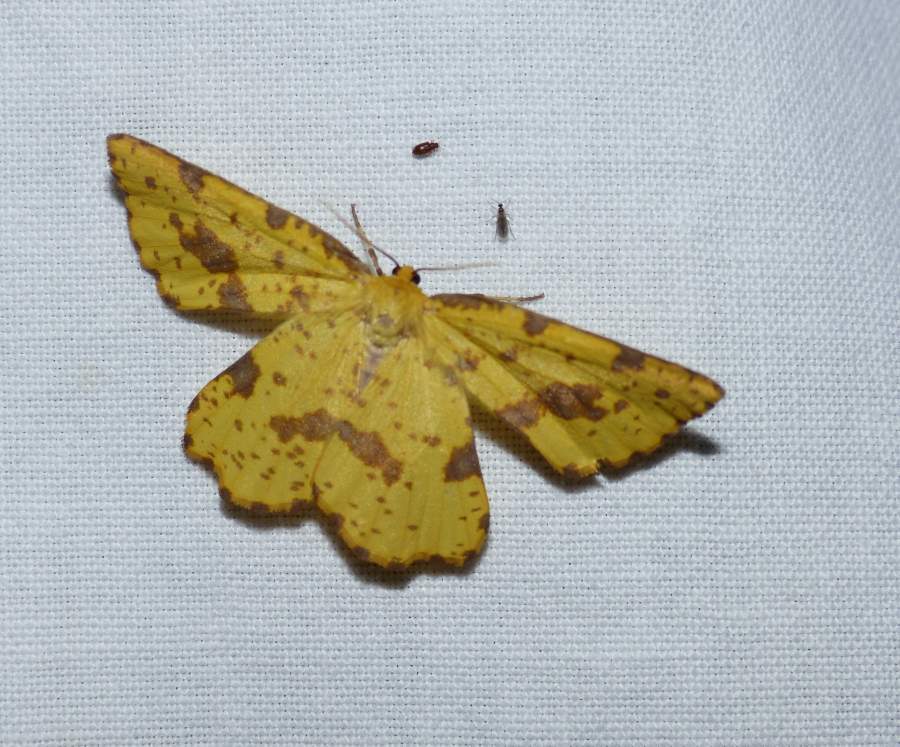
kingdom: Animalia
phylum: Arthropoda
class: Insecta
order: Lepidoptera
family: Geometridae
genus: Xanthotype
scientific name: Xanthotype
